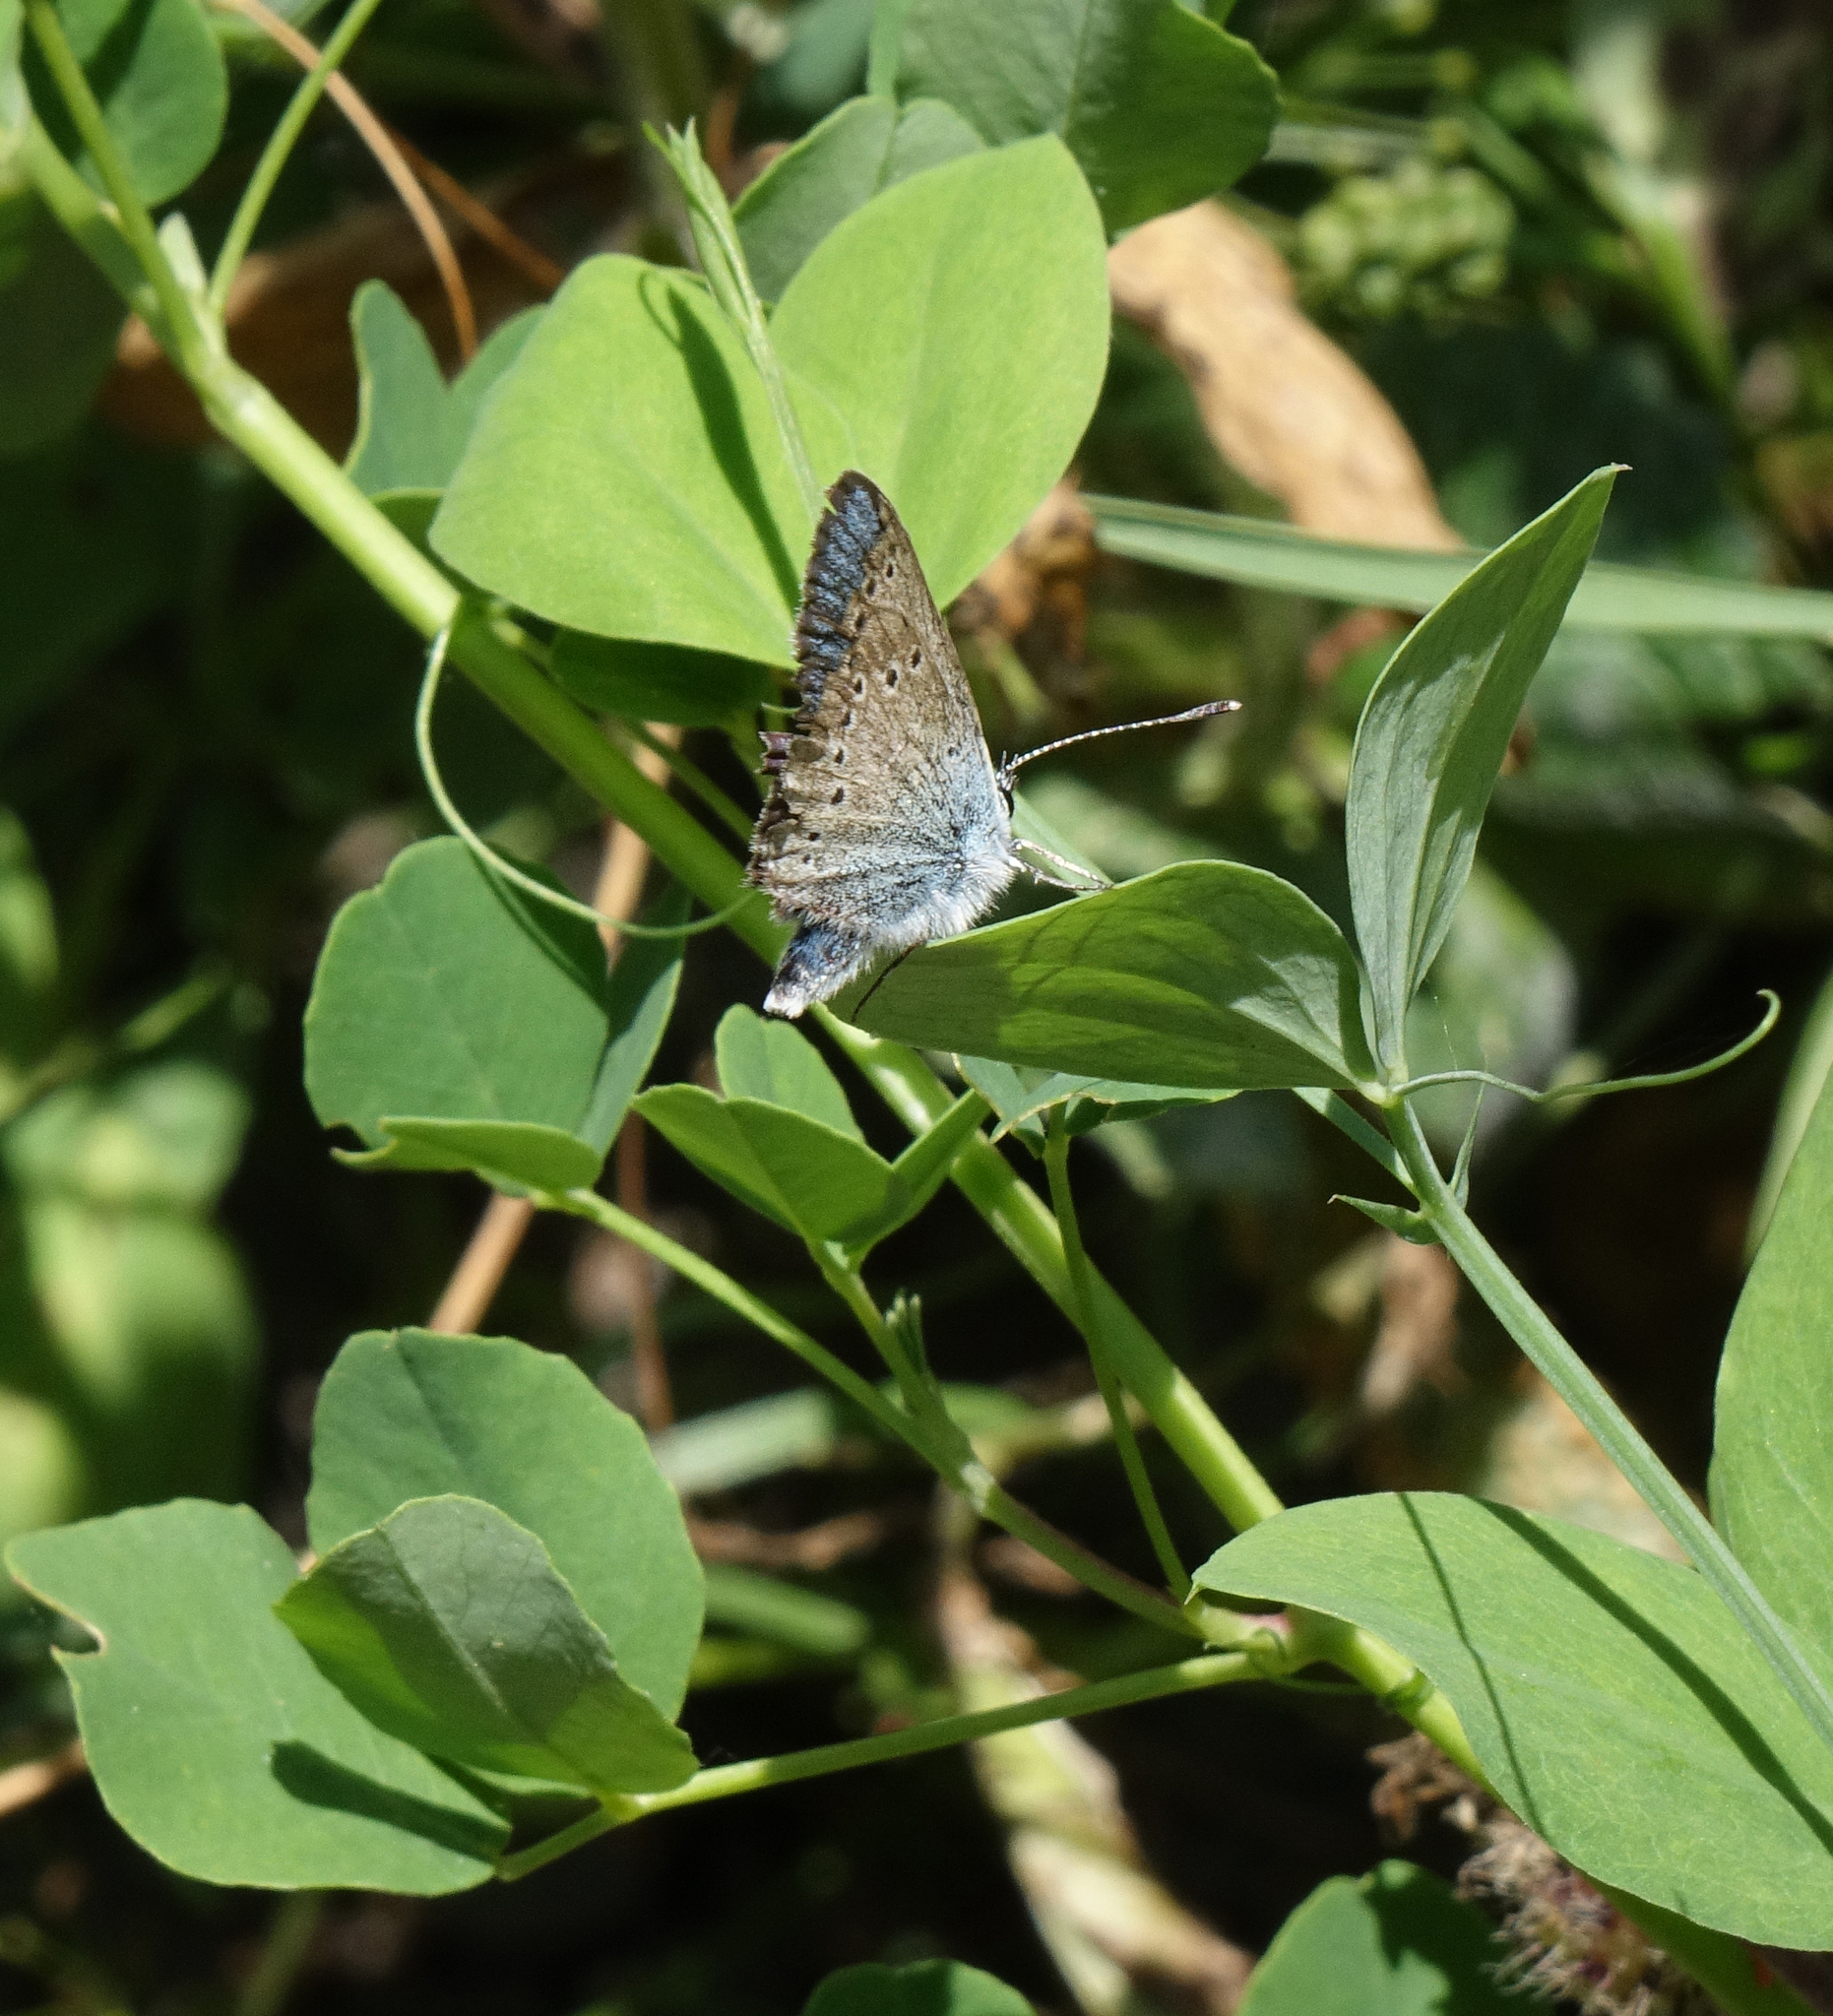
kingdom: Animalia
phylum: Arthropoda
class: Insecta
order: Lepidoptera
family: Lycaenidae
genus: Cyaniris
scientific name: Cyaniris semiargus
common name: Mazarine blue
